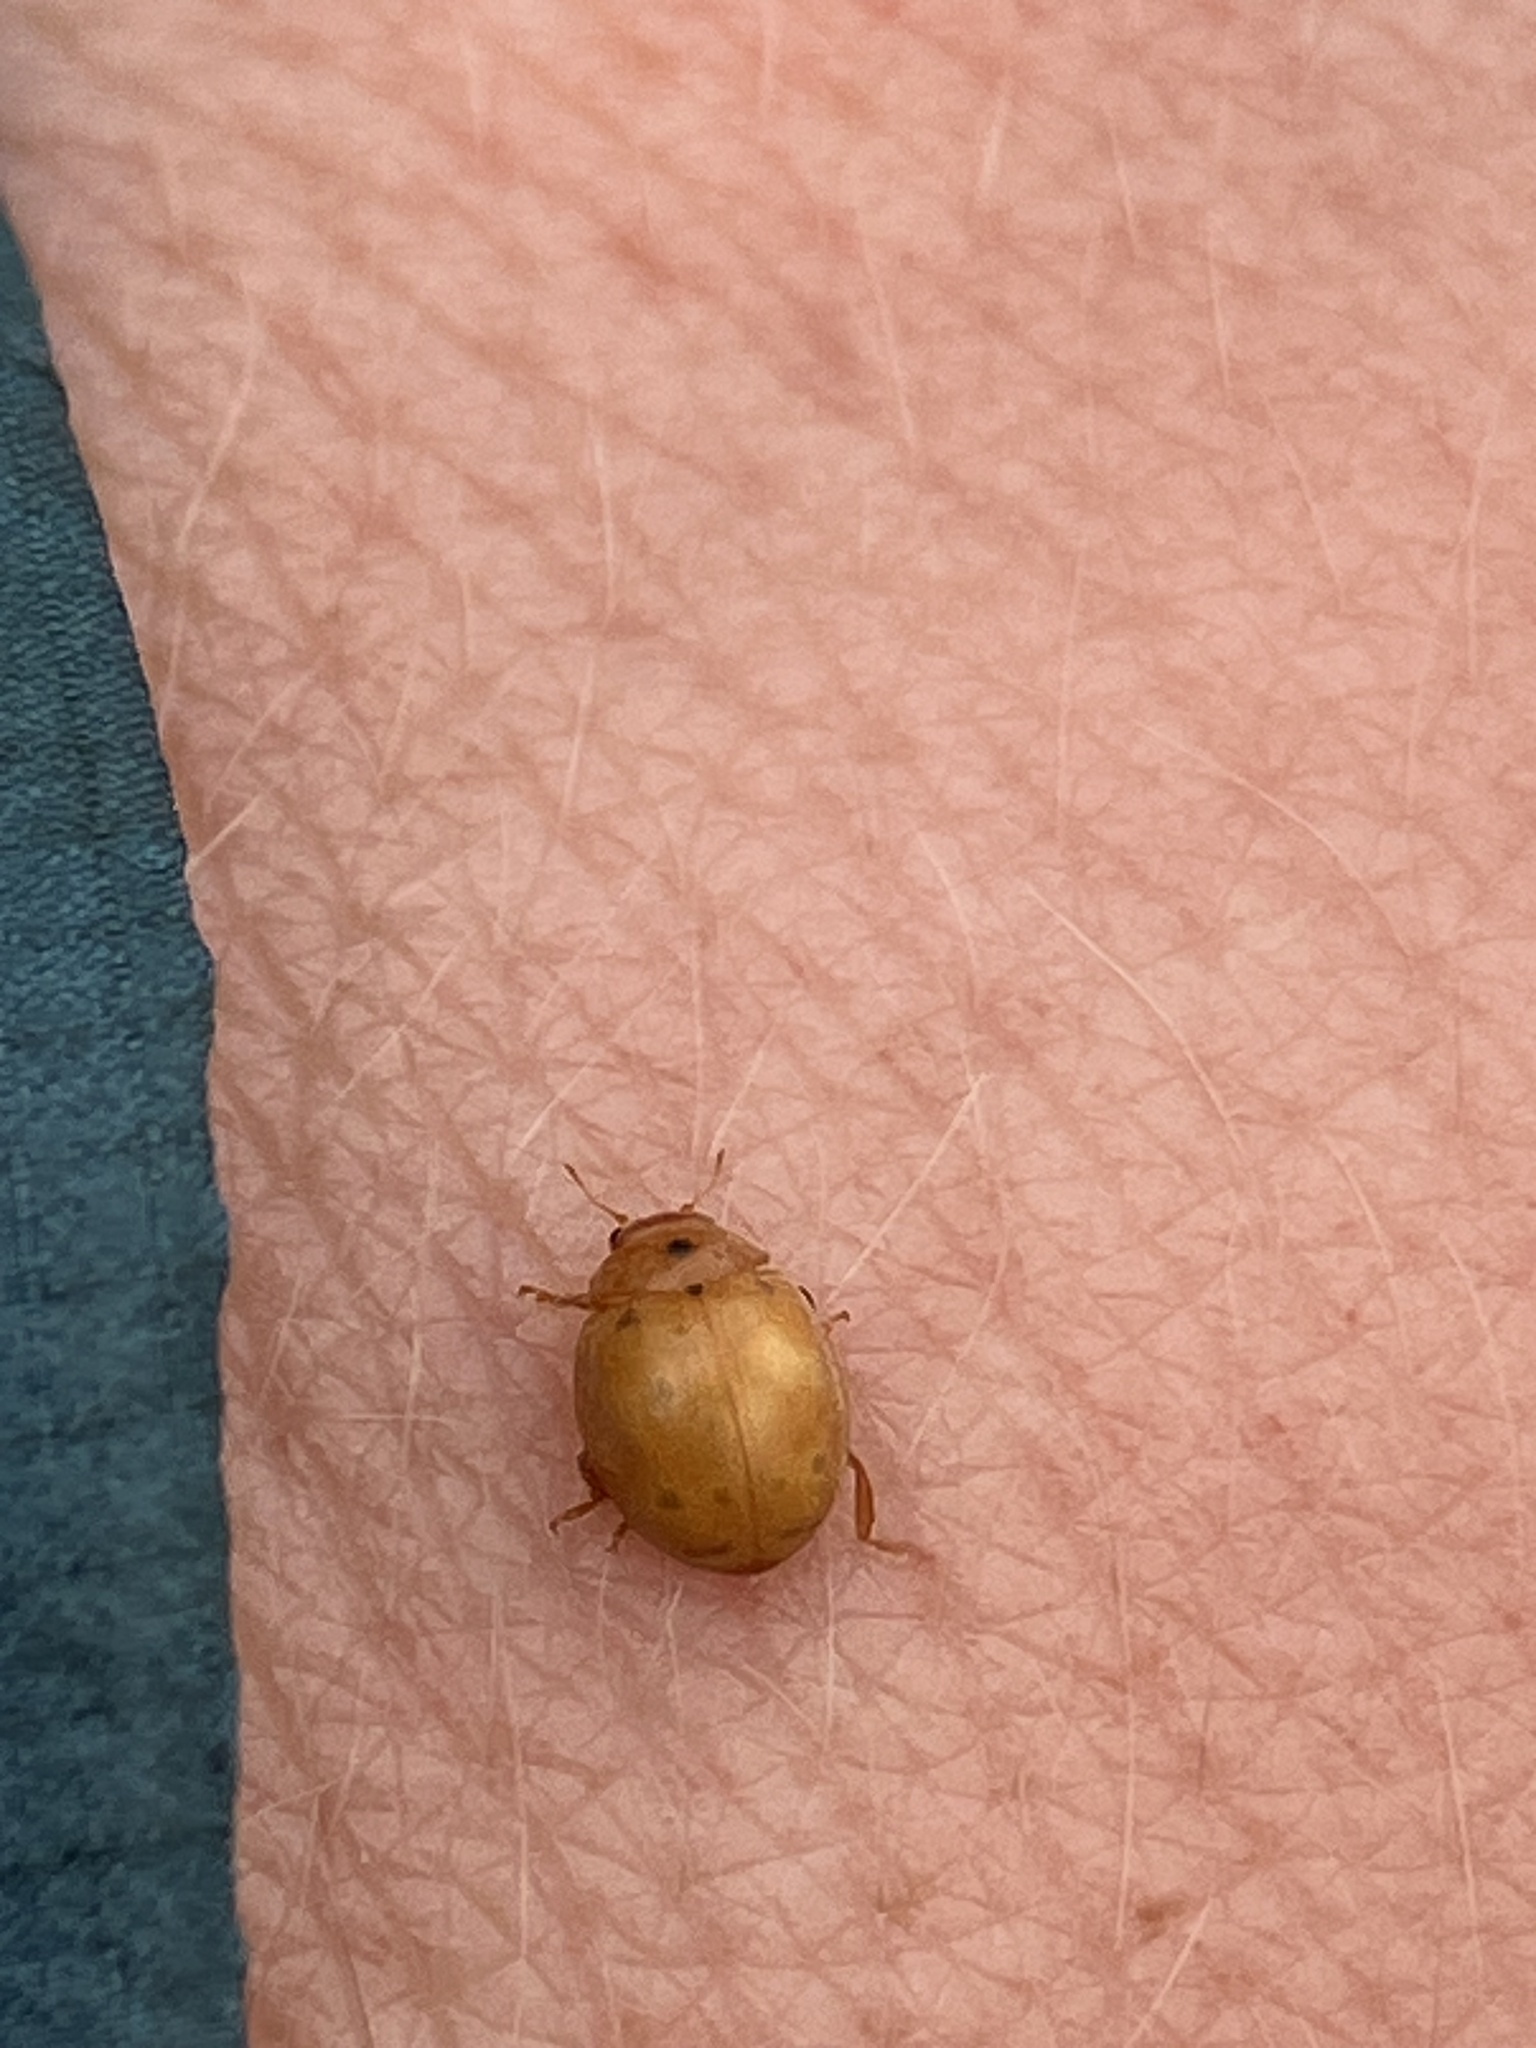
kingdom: Animalia
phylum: Arthropoda
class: Insecta
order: Coleoptera
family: Coccinellidae
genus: Cynegetis
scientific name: Cynegetis impunctata
